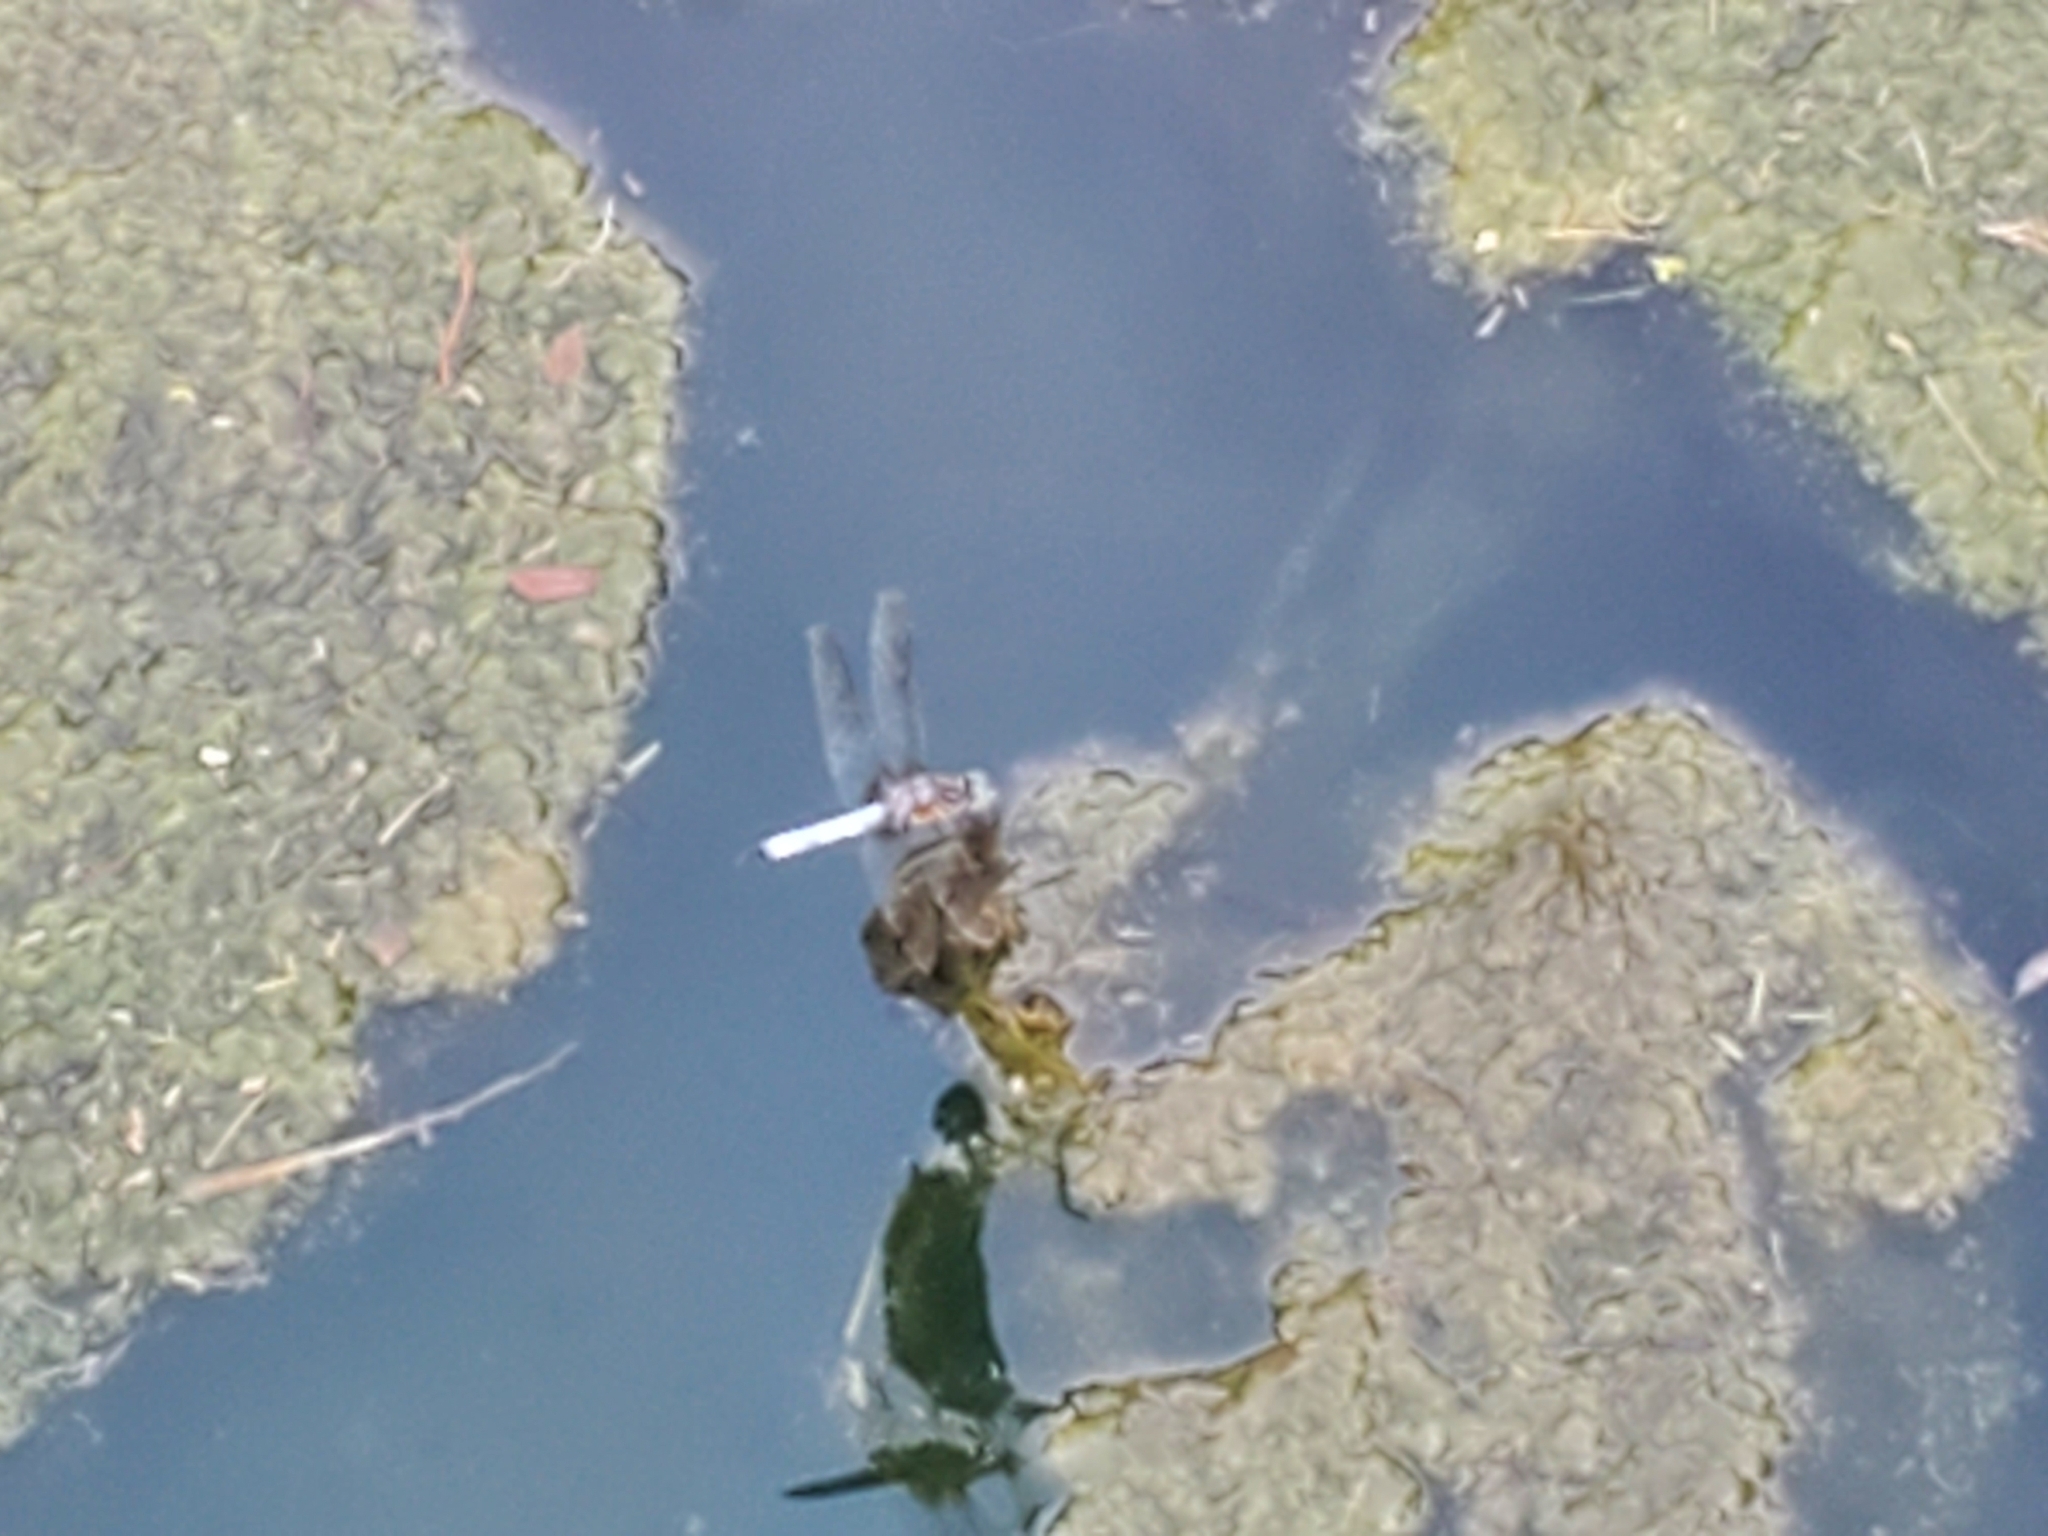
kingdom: Animalia
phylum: Arthropoda
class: Insecta
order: Odonata
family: Libellulidae
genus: Pachydiplax
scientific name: Pachydiplax longipennis
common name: Blue dasher
